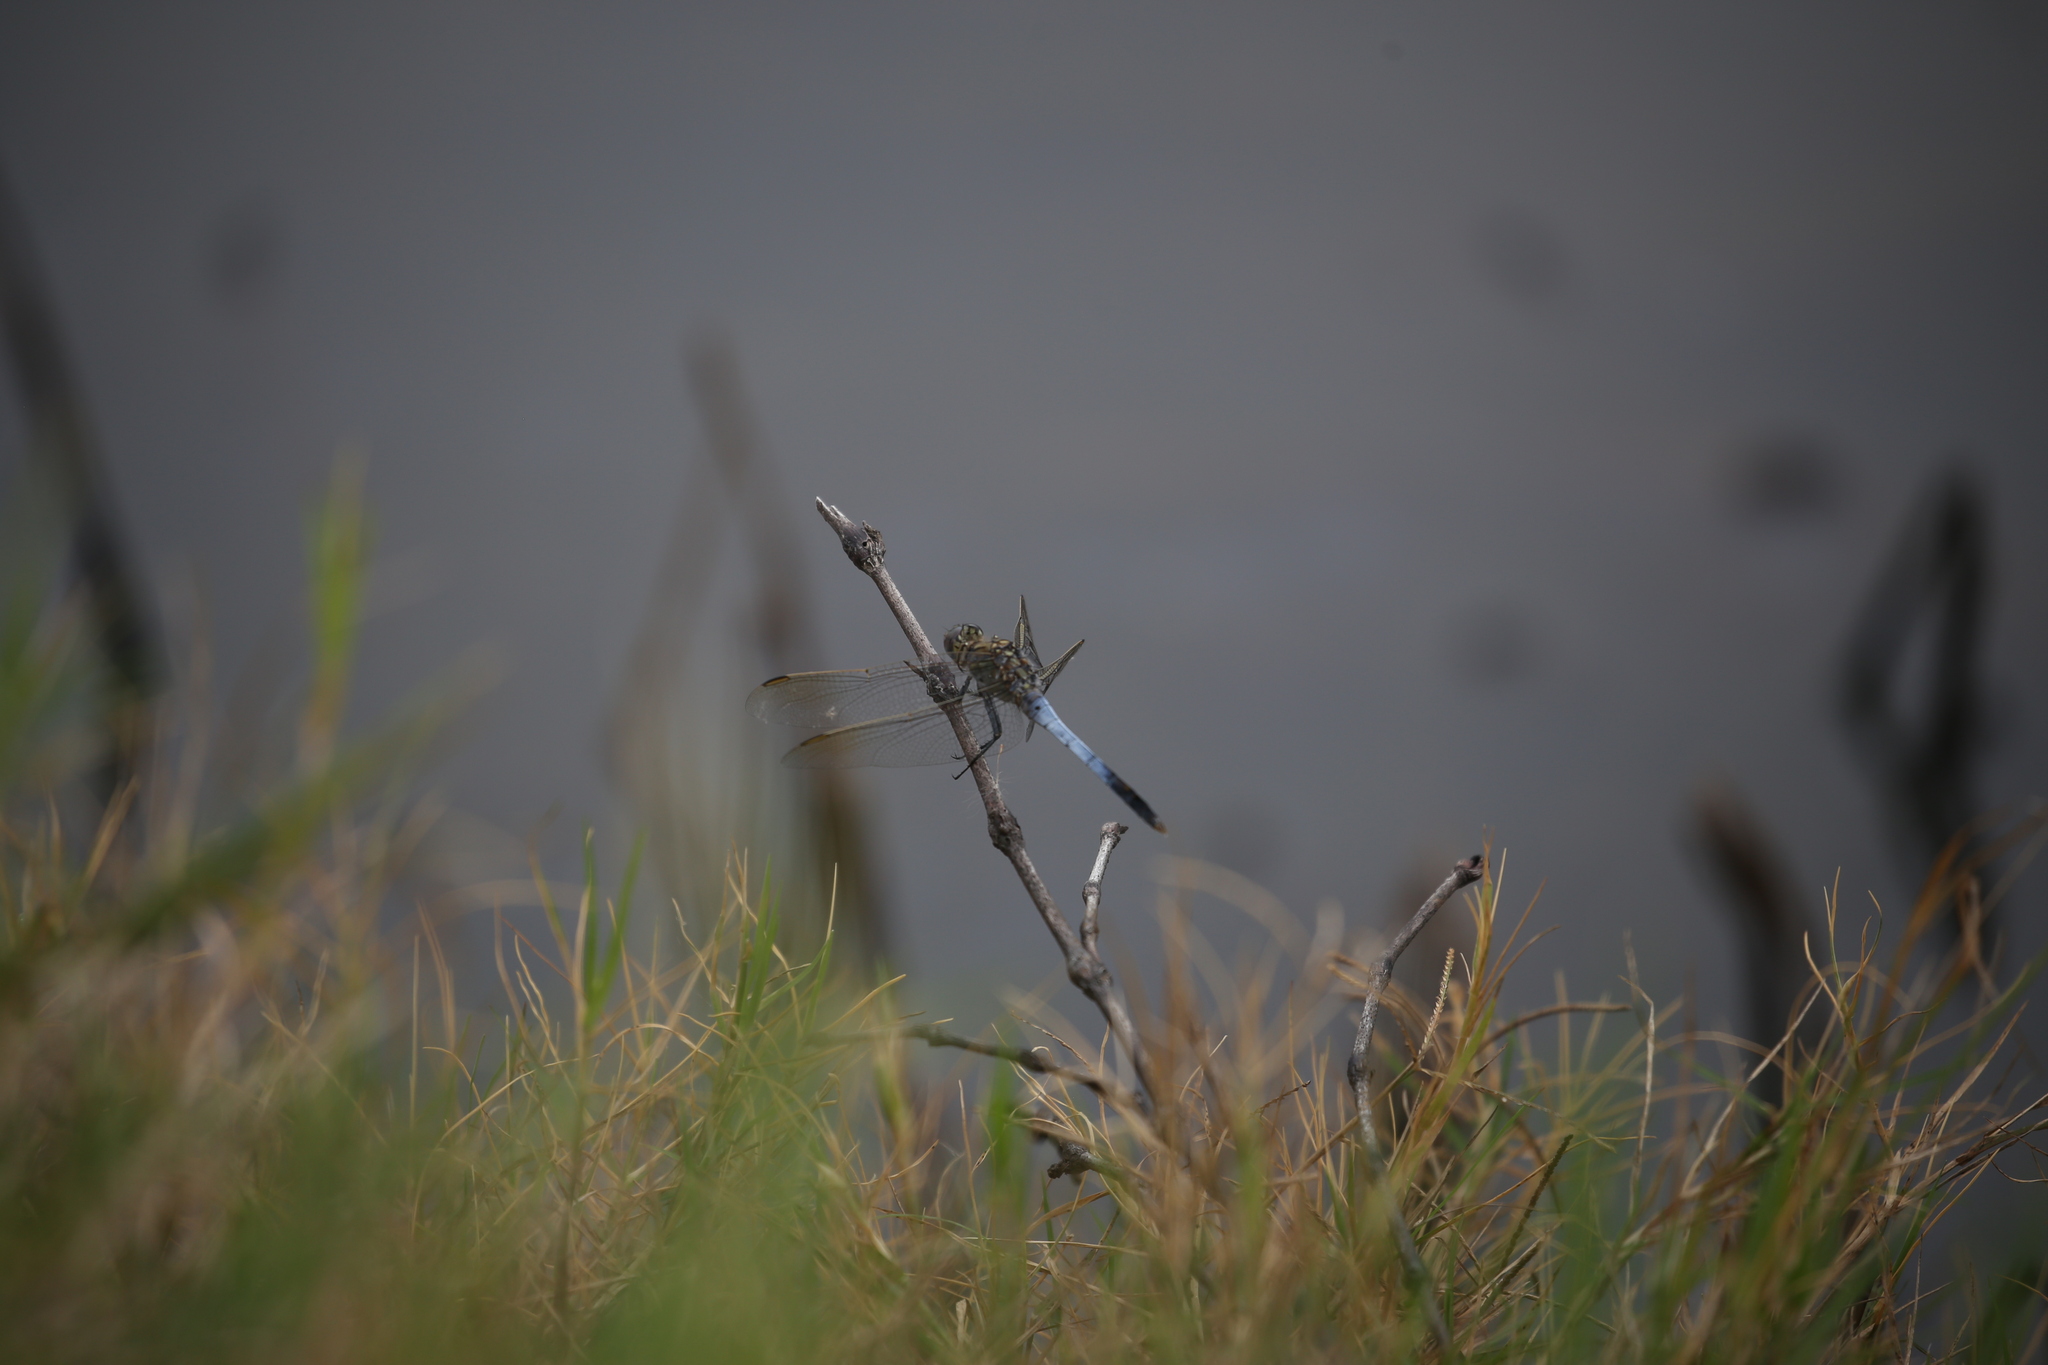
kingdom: Animalia
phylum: Arthropoda
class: Insecta
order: Odonata
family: Libellulidae
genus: Orthetrum
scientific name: Orthetrum caledonicum
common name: Blue skimmer
